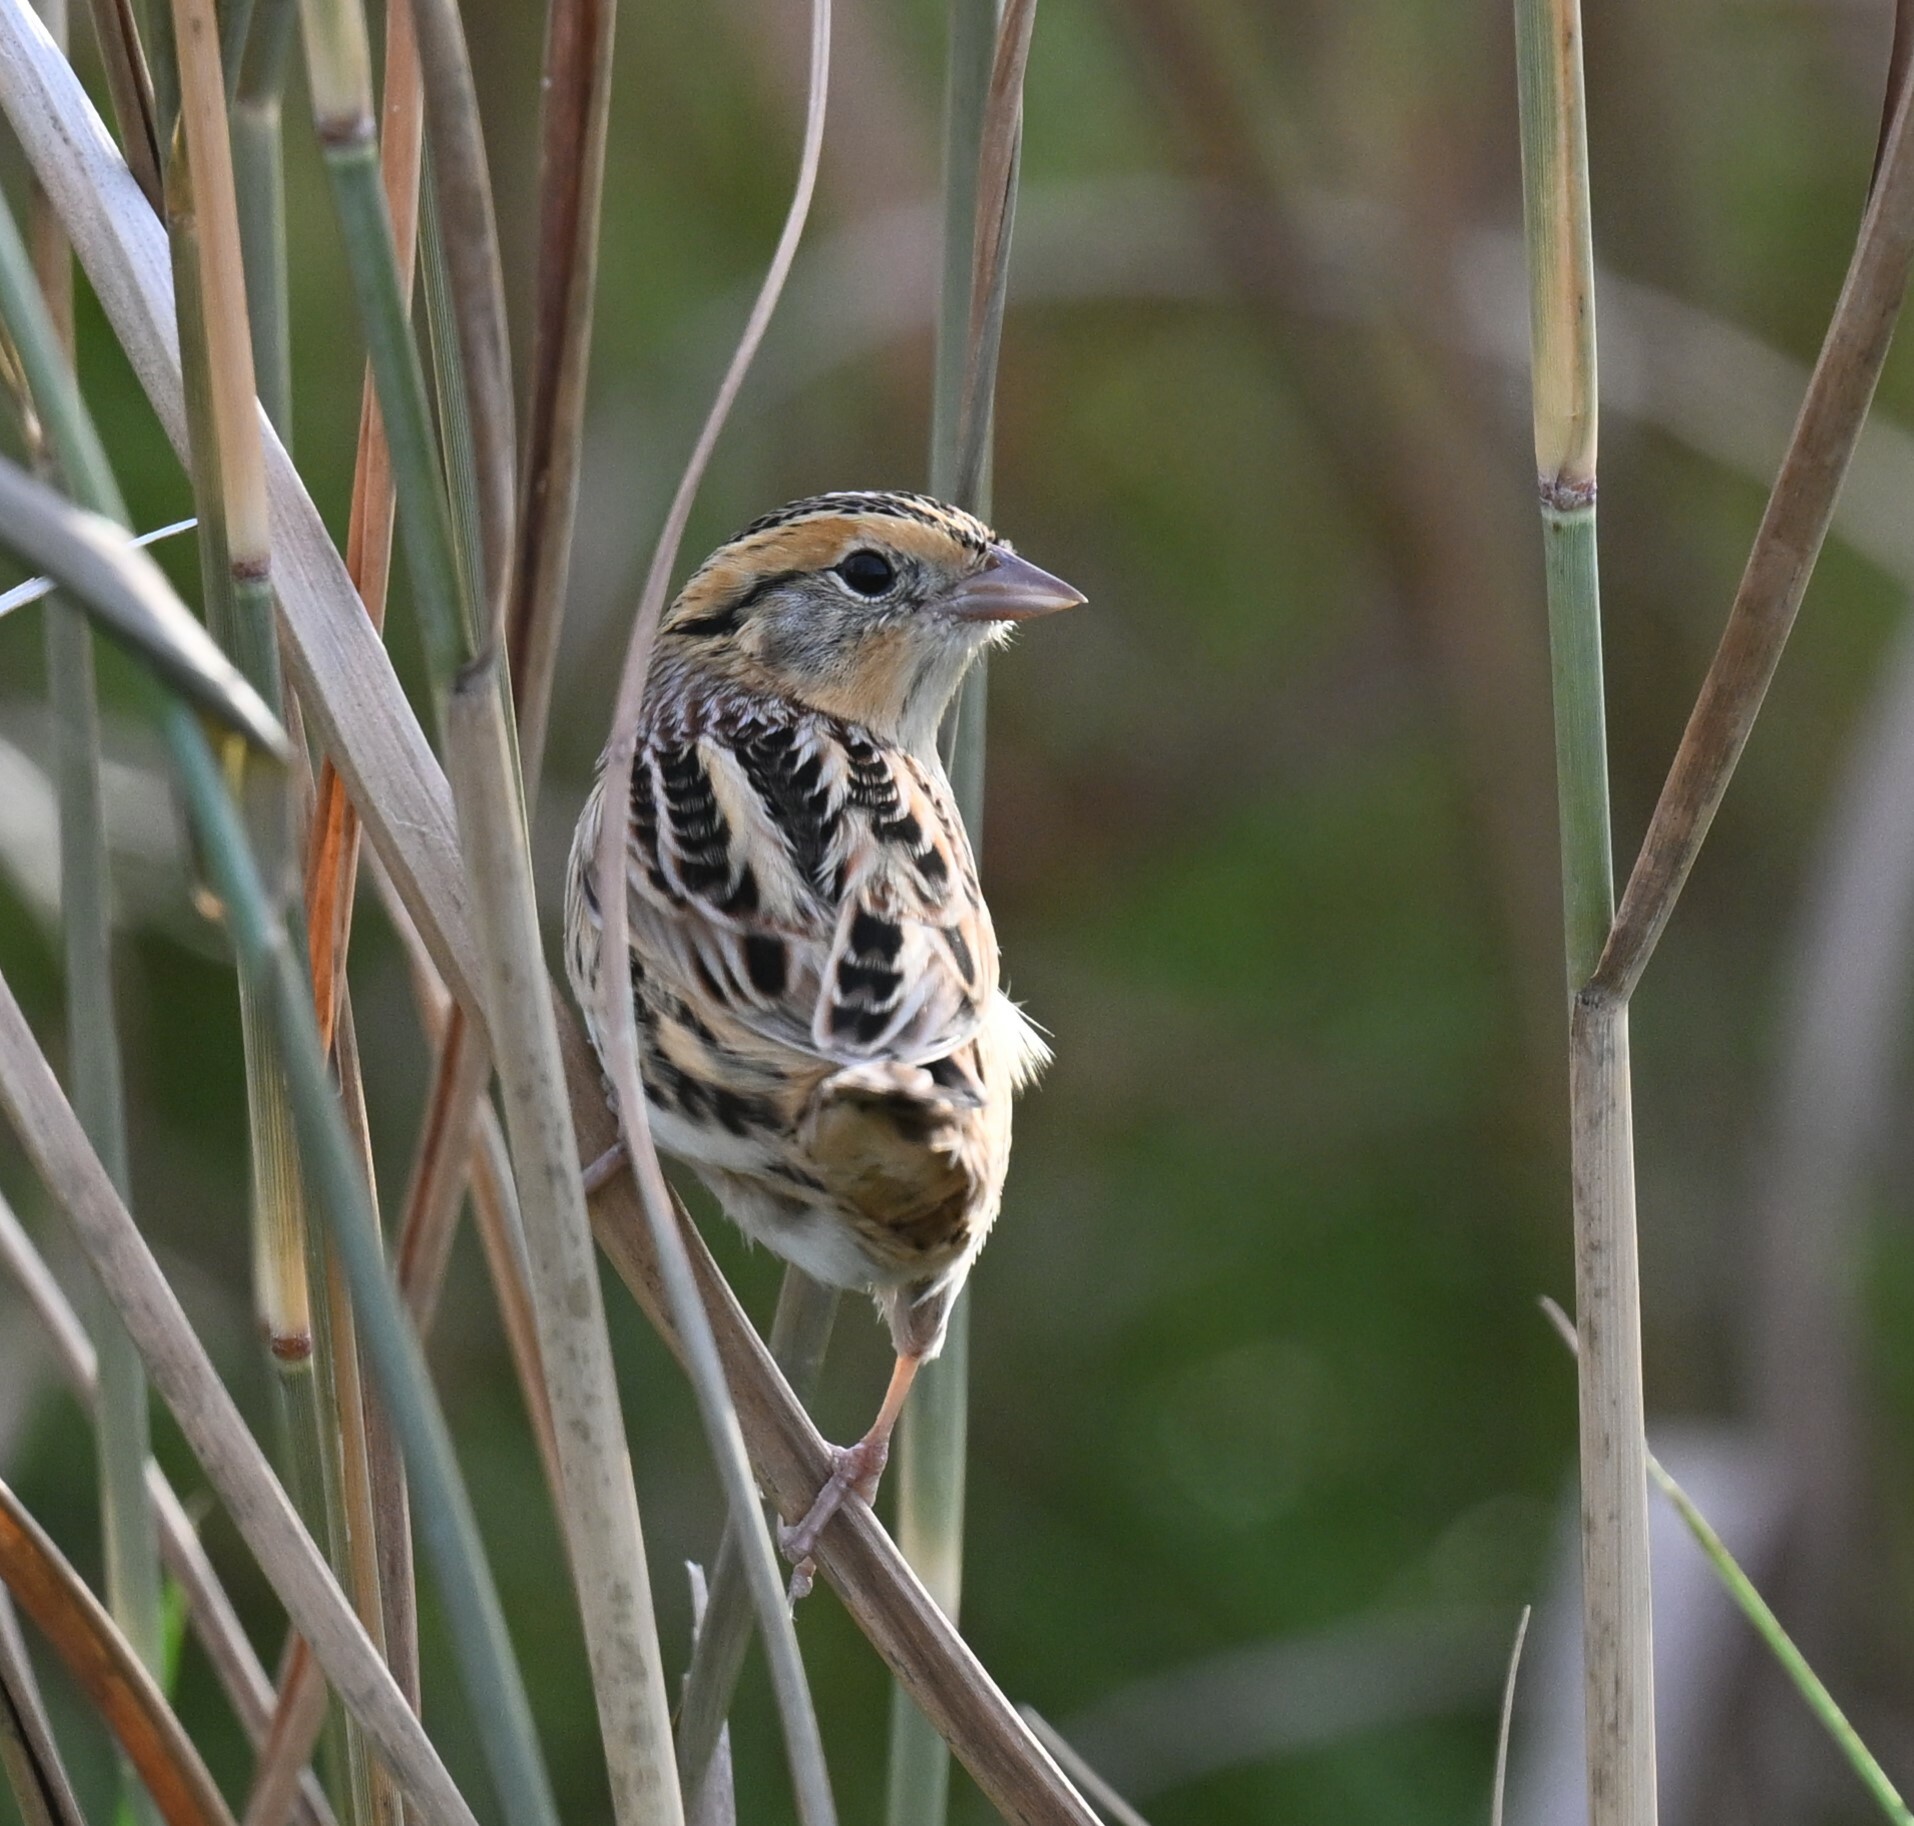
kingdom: Animalia
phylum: Chordata
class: Aves
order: Passeriformes
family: Passerellidae
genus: Ammospiza
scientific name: Ammospiza leconteii
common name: Le conte's sparrow
